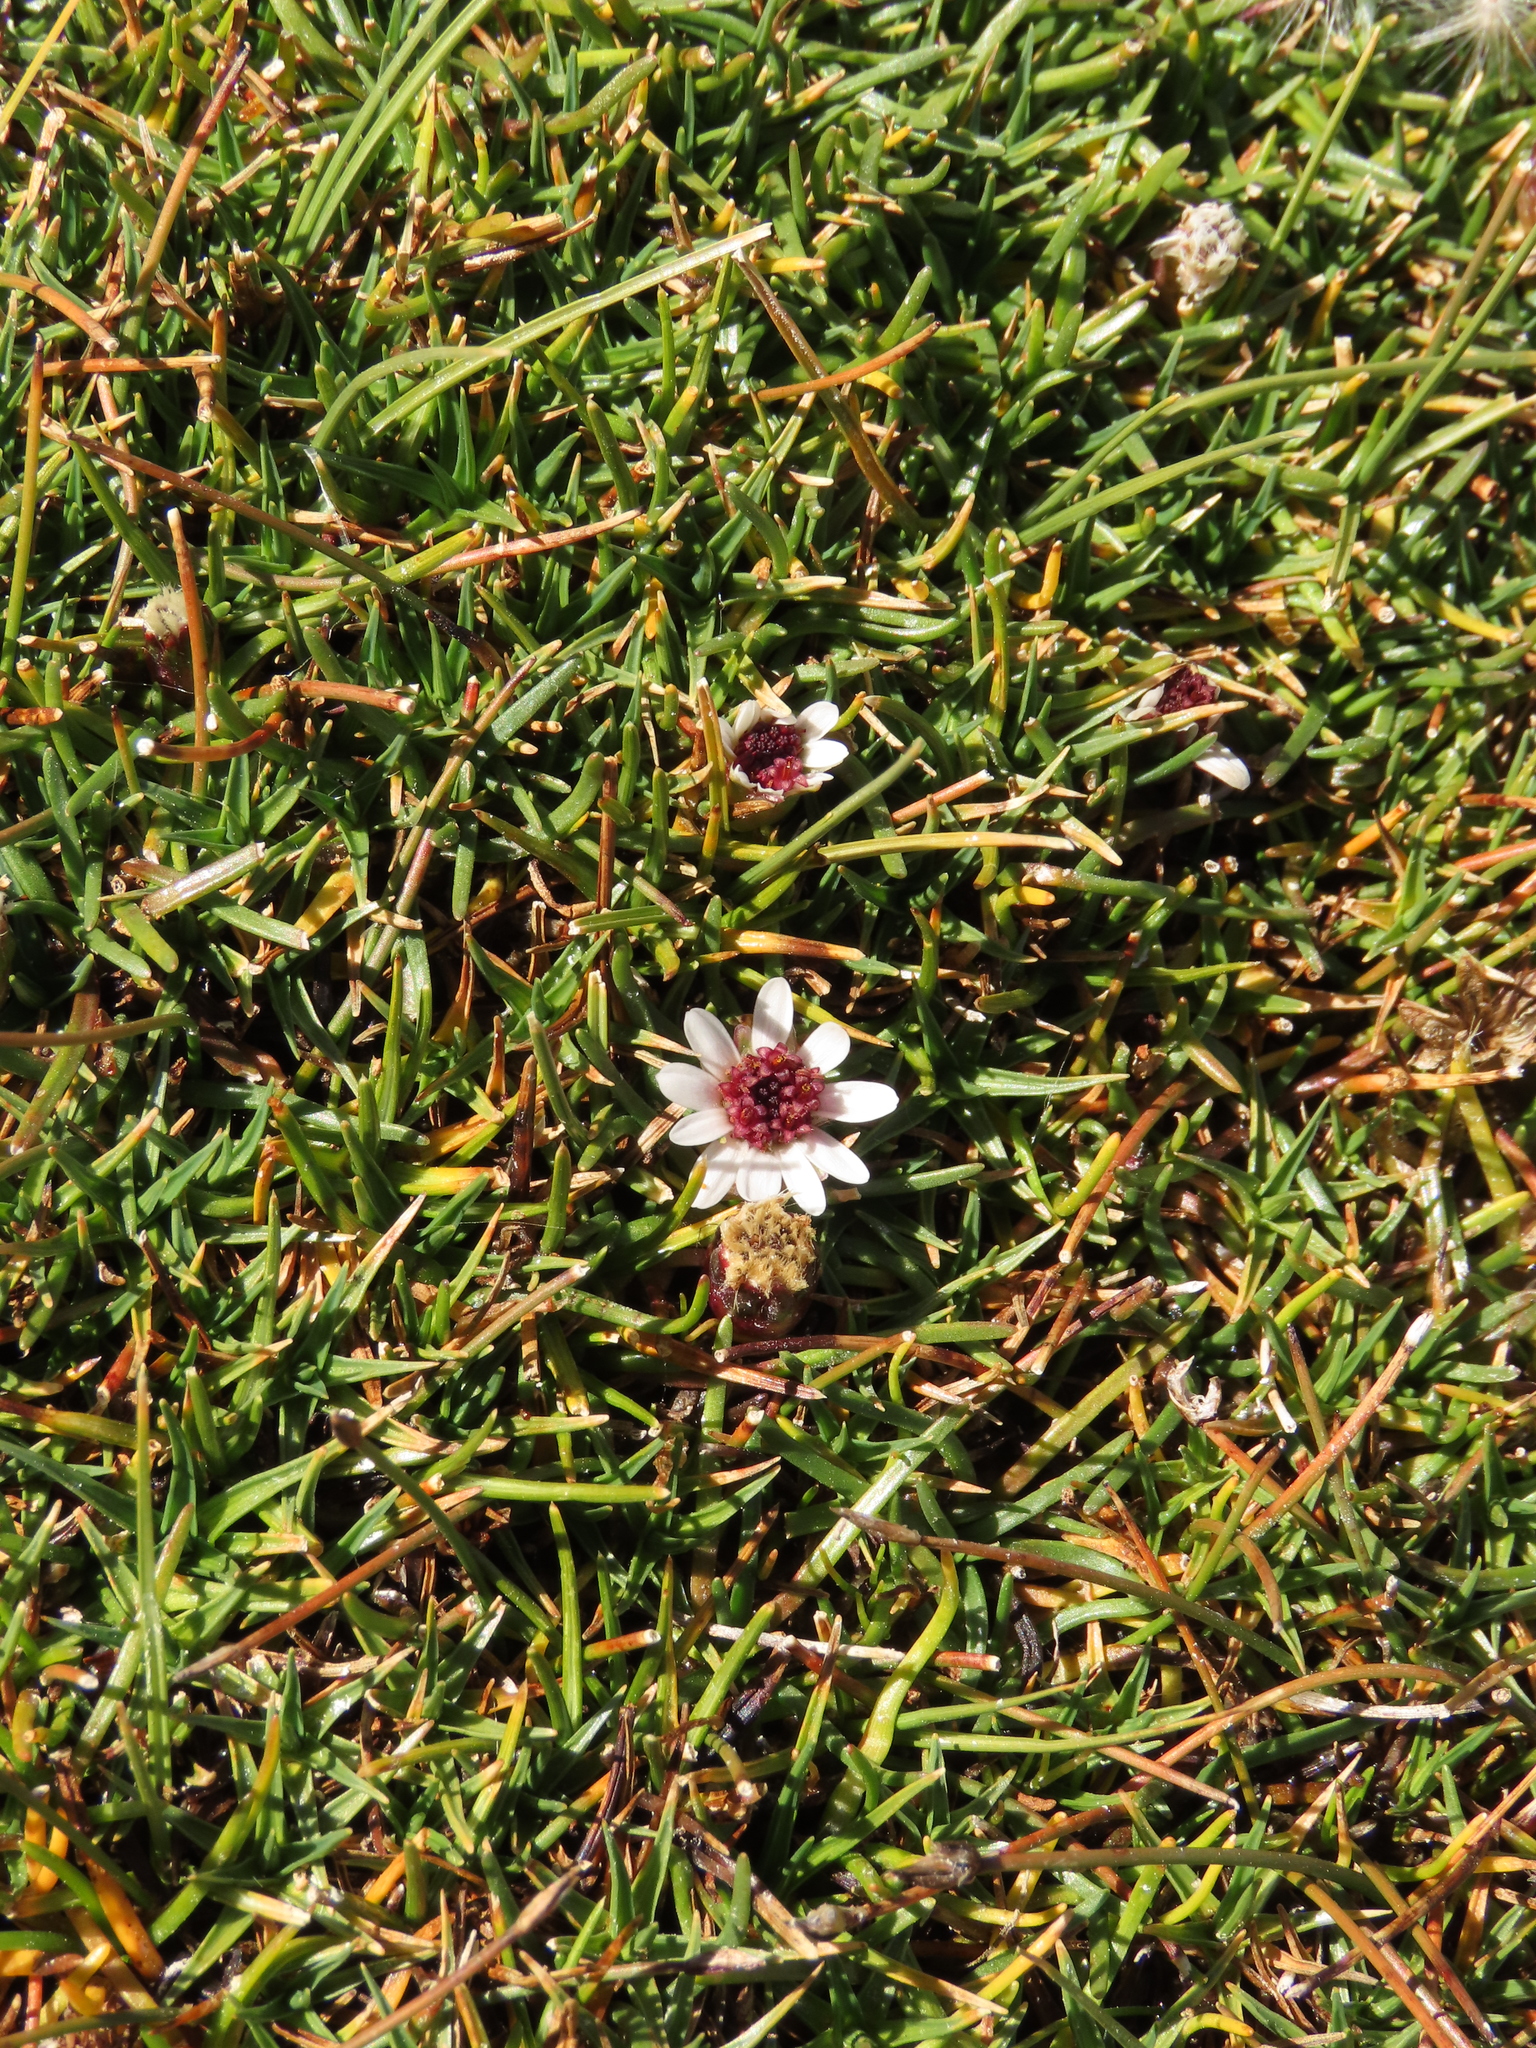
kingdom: Plantae
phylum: Tracheophyta
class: Magnoliopsida
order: Asterales
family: Asteraceae
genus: Rockhausenia
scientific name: Rockhausenia pygmaea
